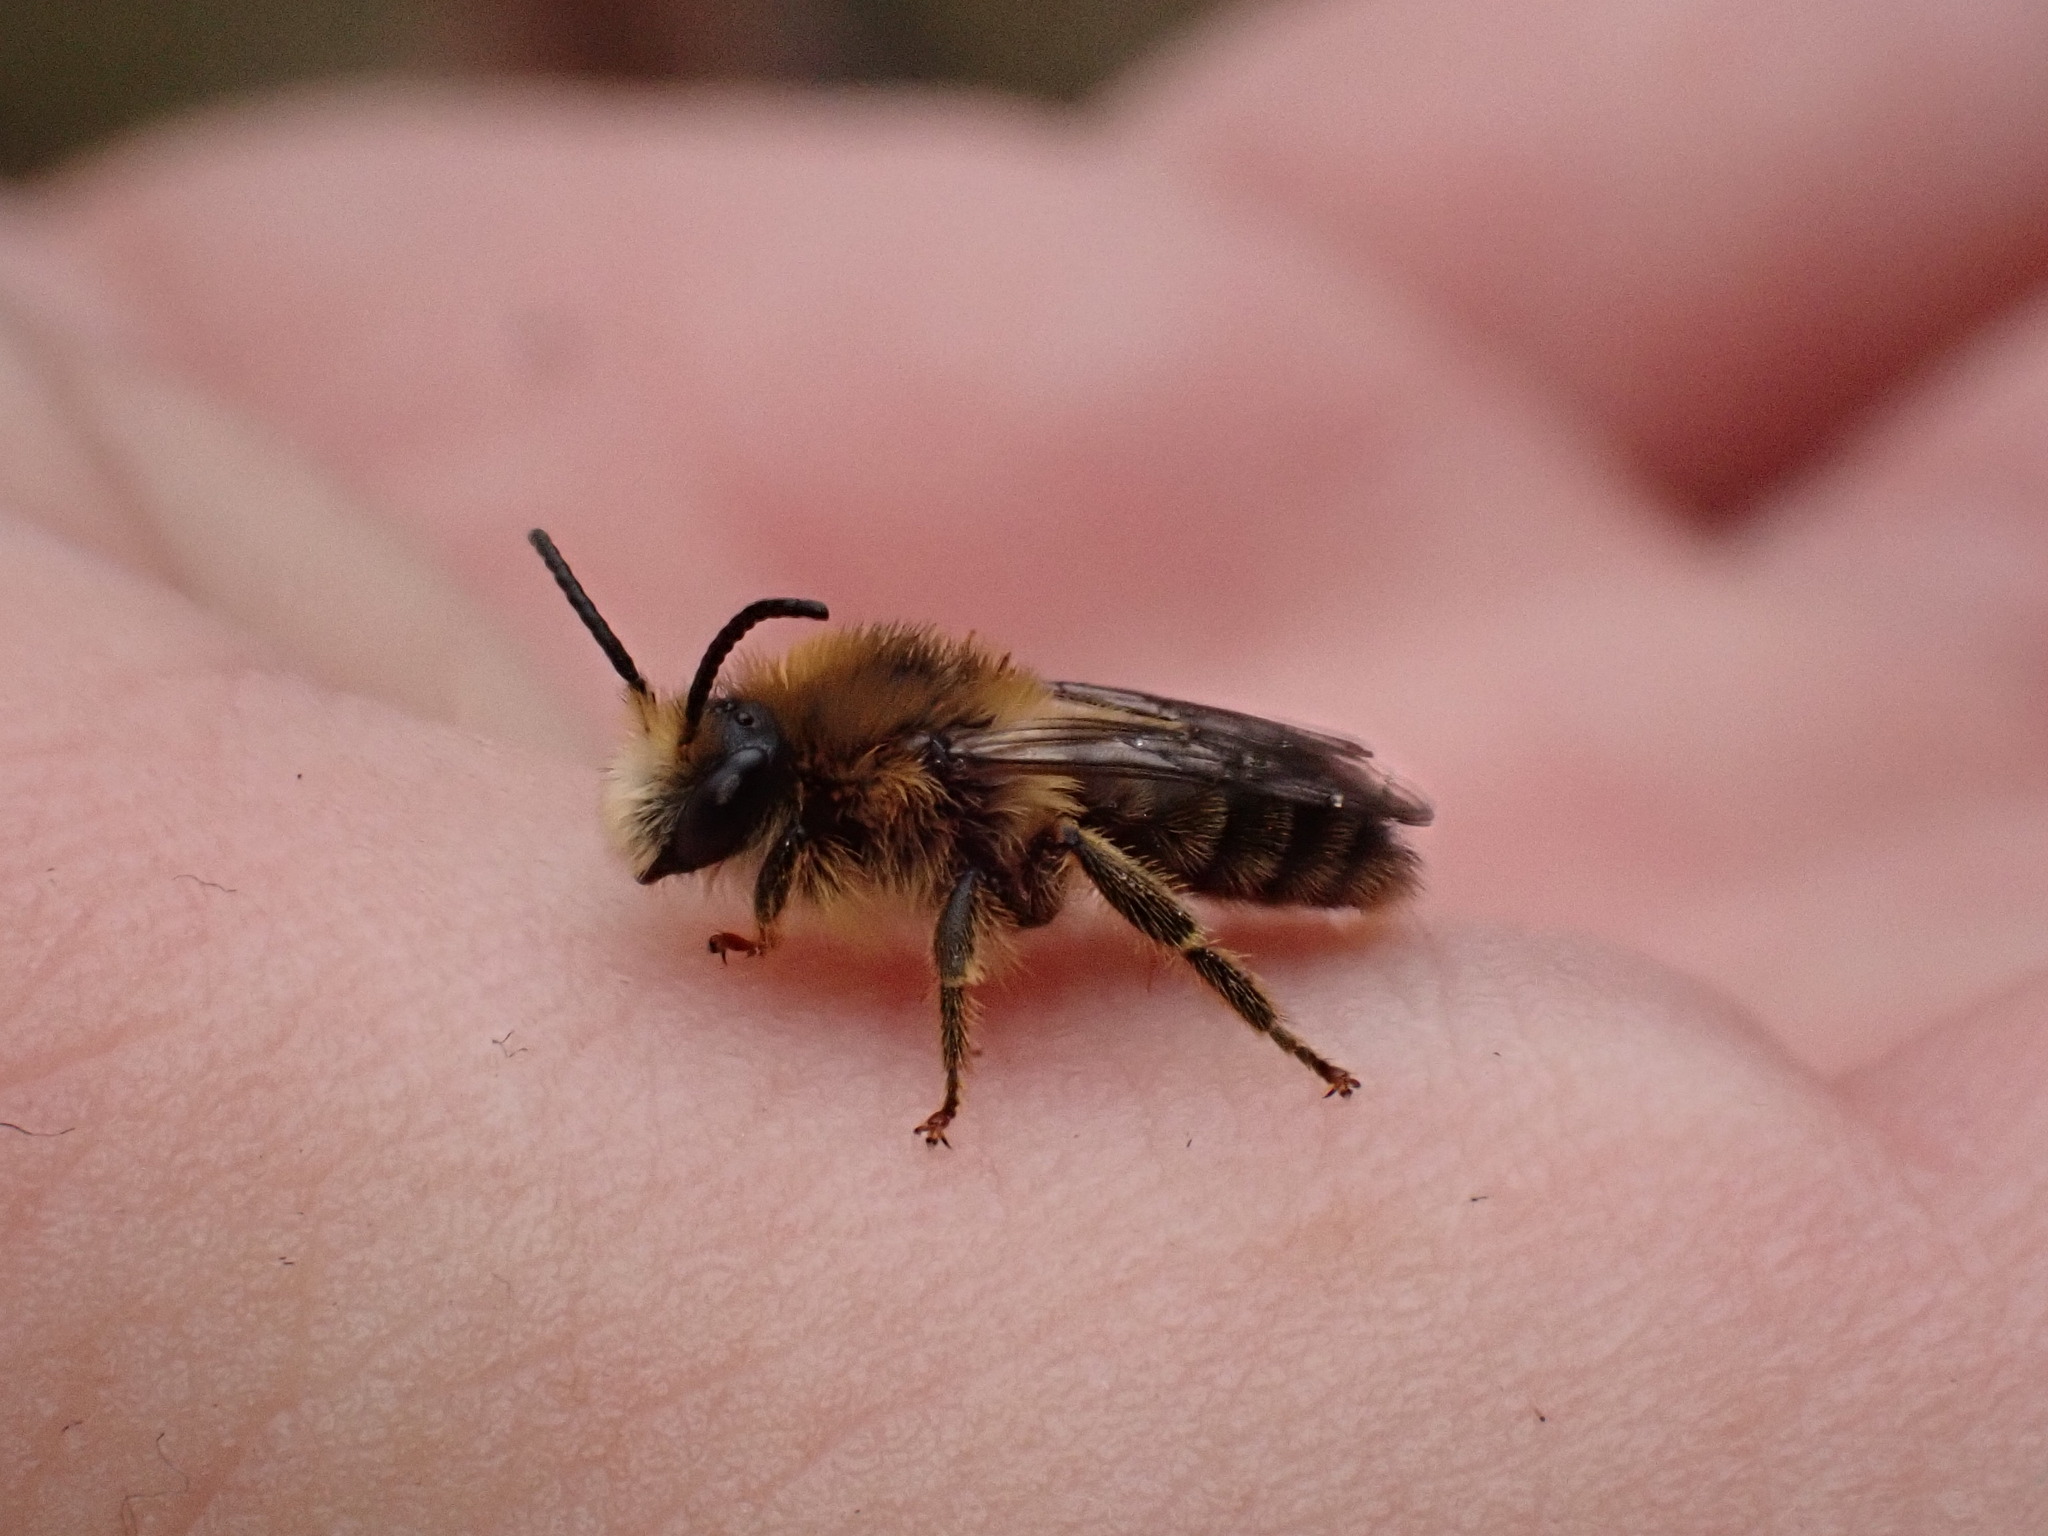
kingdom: Animalia
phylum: Arthropoda
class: Insecta
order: Hymenoptera
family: Melittidae
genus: Melitta
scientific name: Melitta haemorrhoidalis
